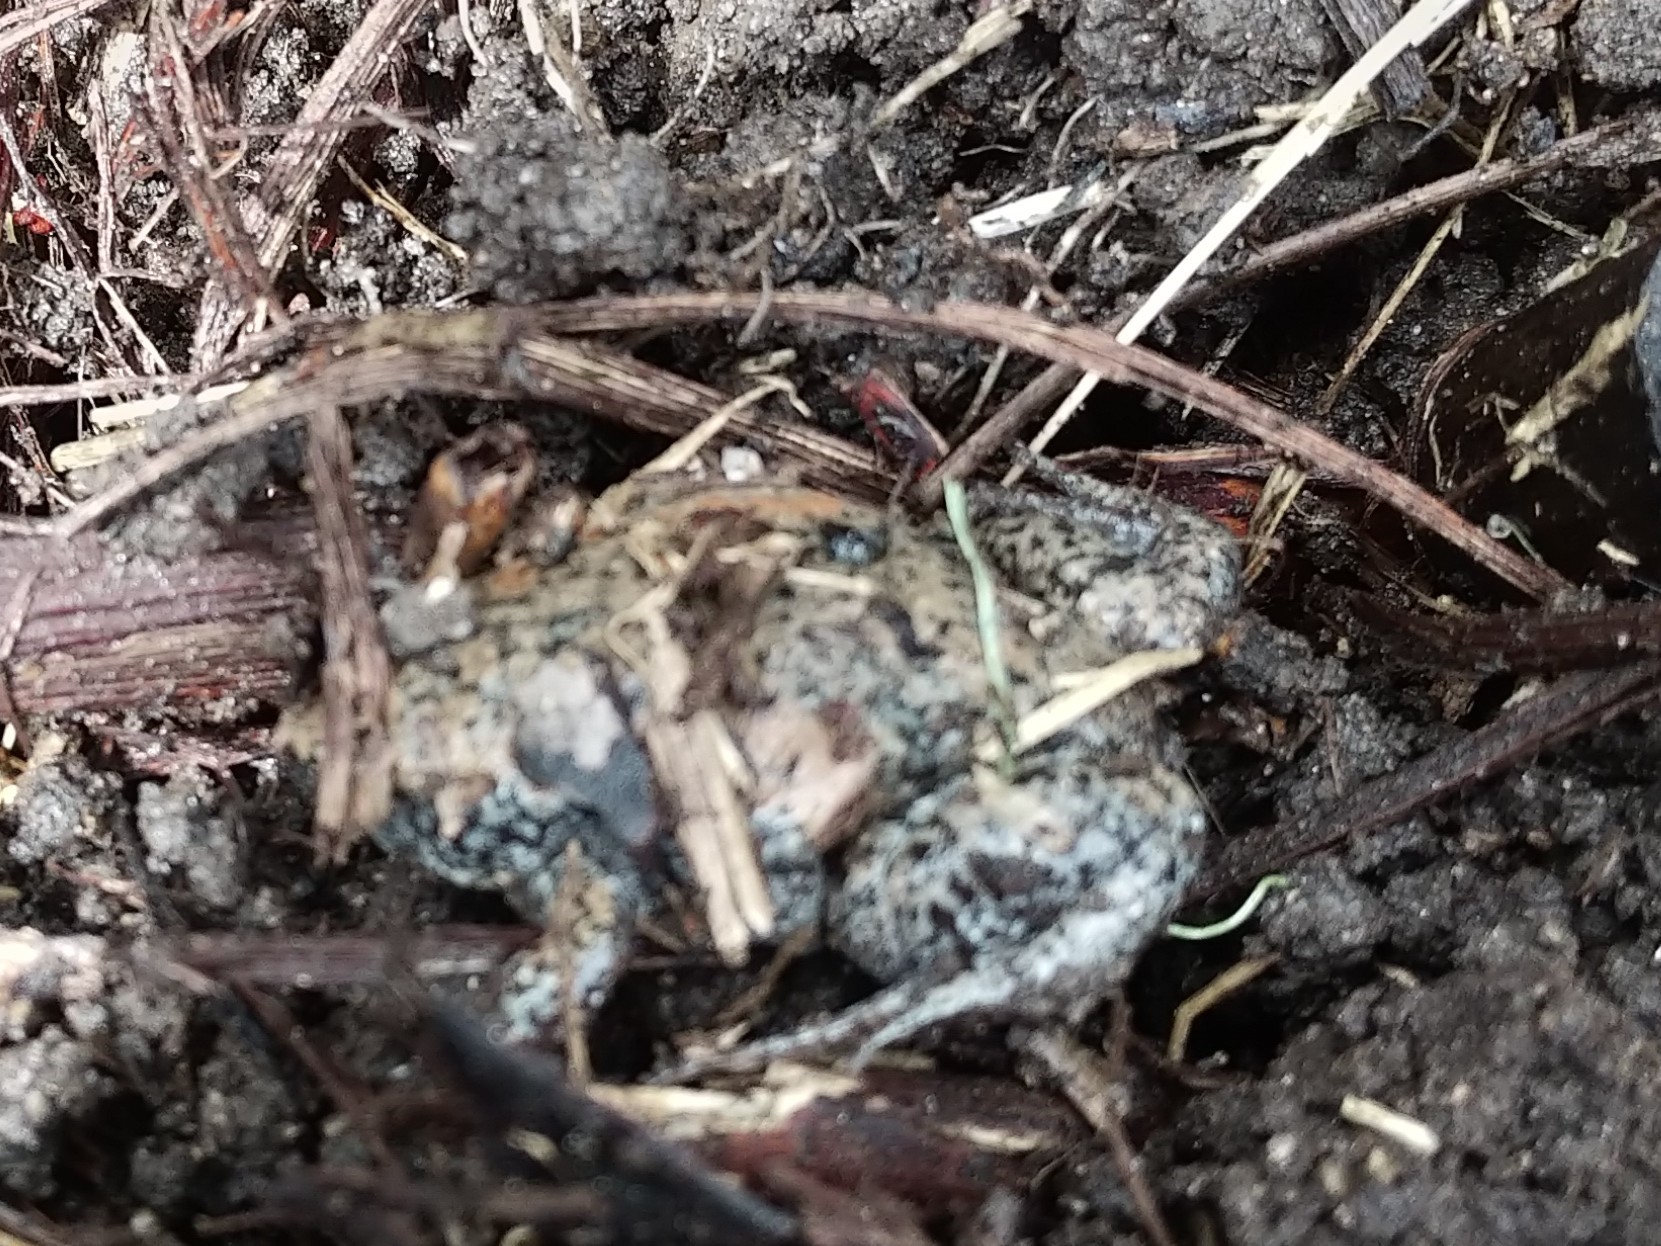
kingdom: Animalia
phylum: Chordata
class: Amphibia
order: Anura
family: Microhylidae
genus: Gastrophryne
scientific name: Gastrophryne carolinensis
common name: Eastern narrowmouth toad
